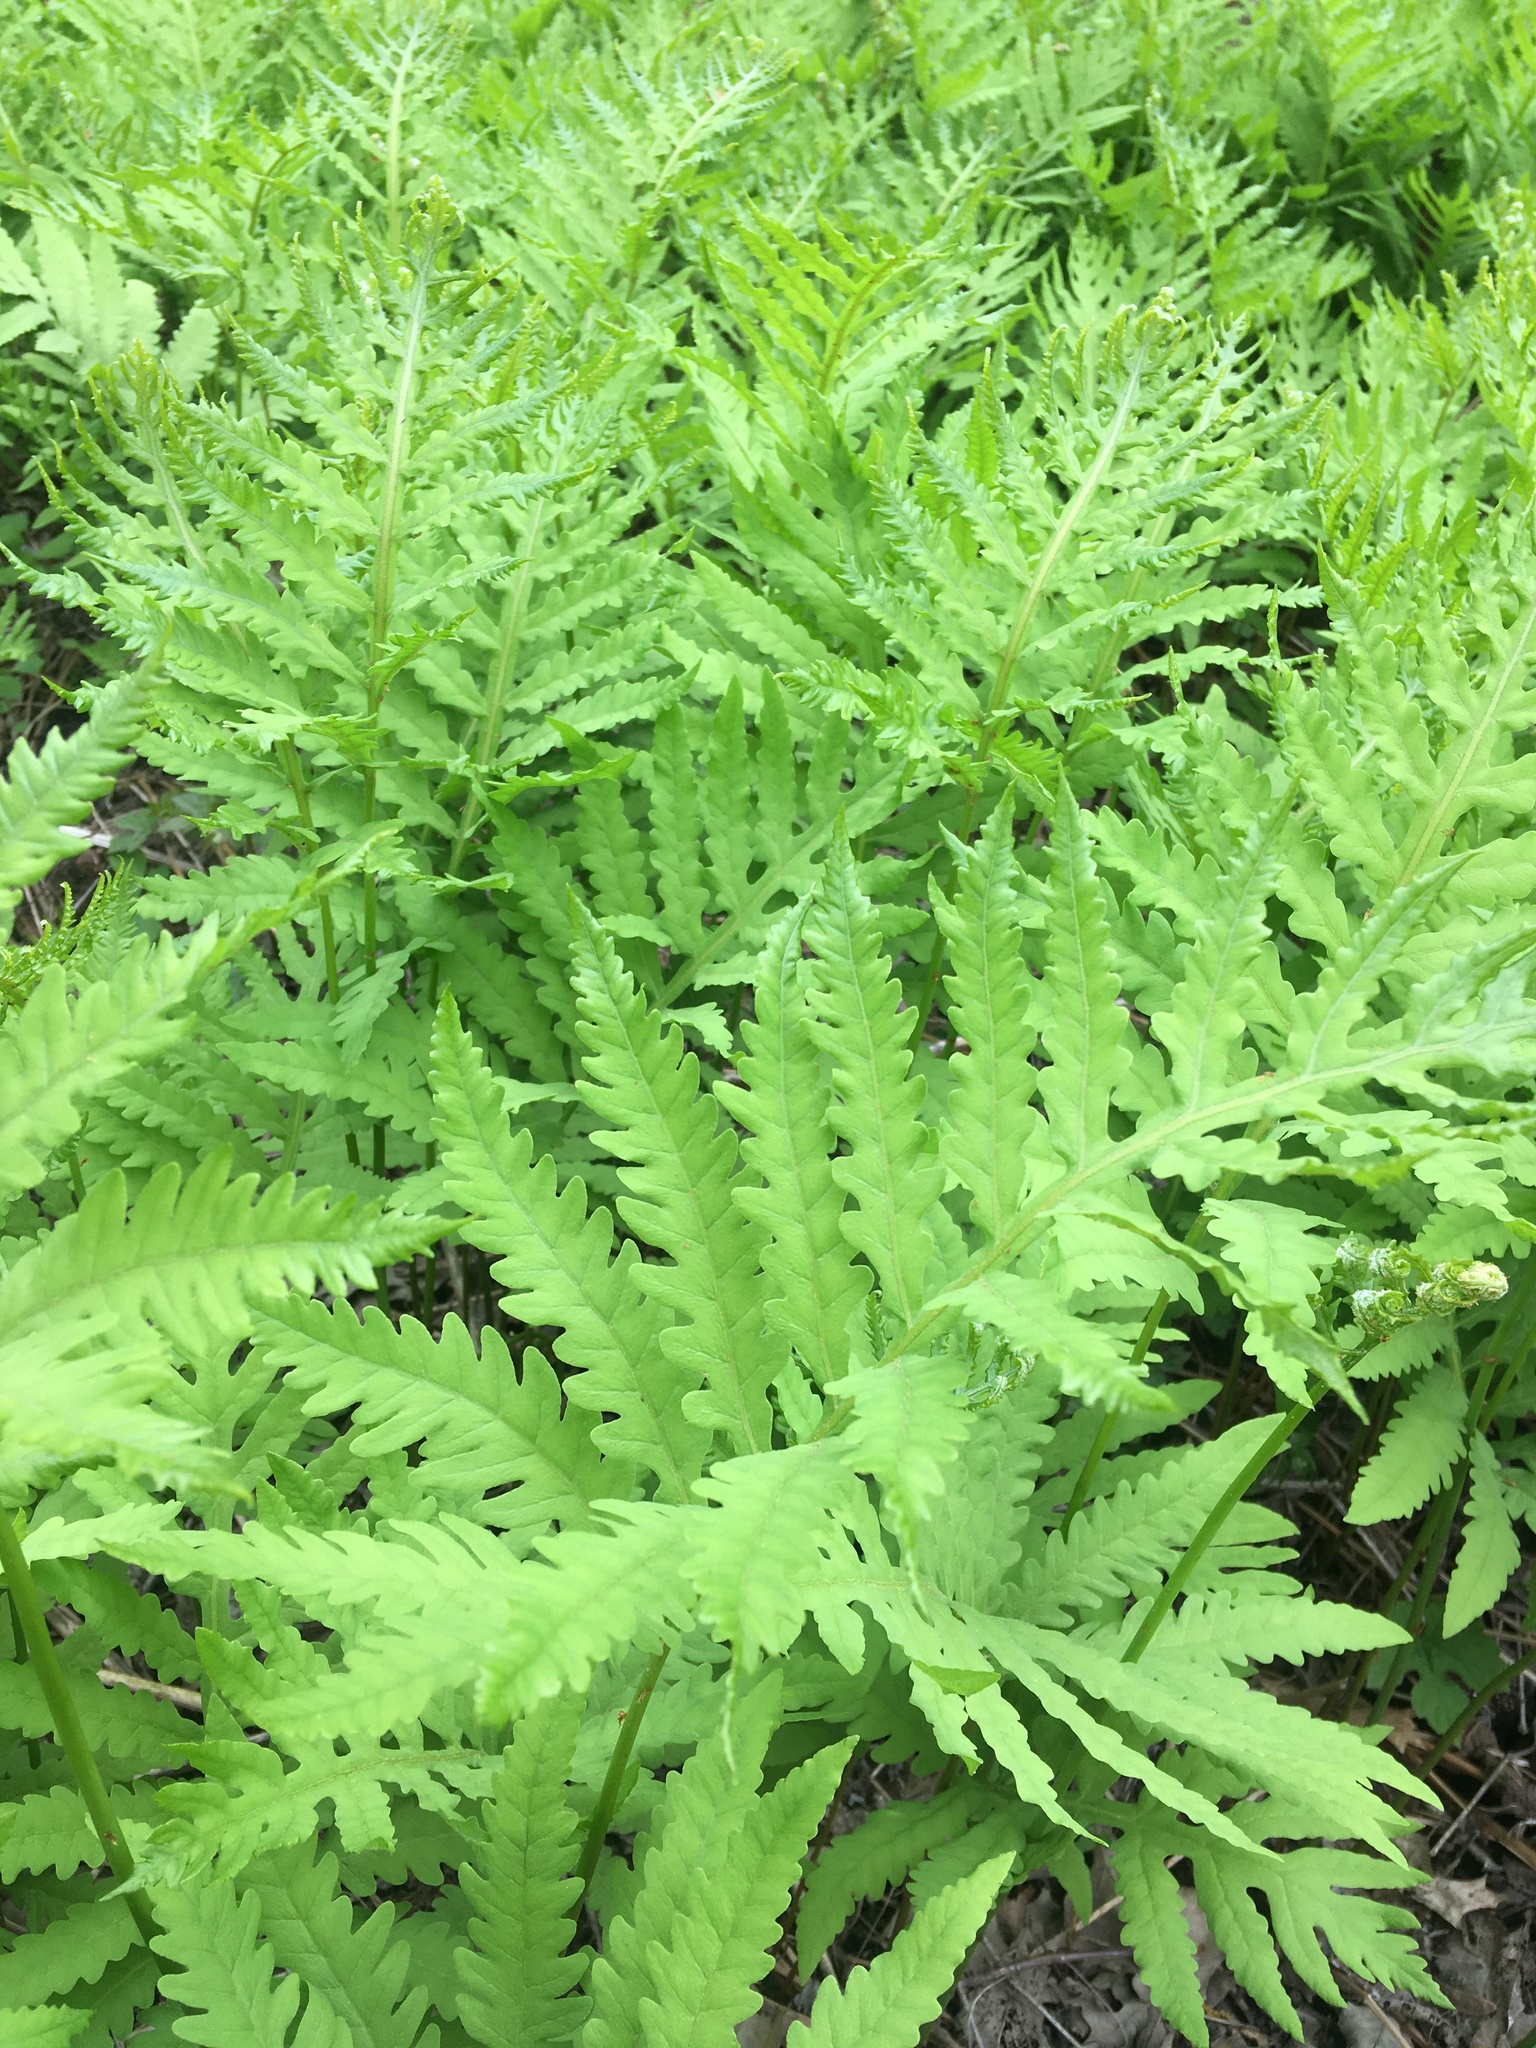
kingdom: Plantae
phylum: Tracheophyta
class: Polypodiopsida
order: Polypodiales
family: Onocleaceae
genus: Onoclea
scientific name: Onoclea sensibilis
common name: Sensitive fern
